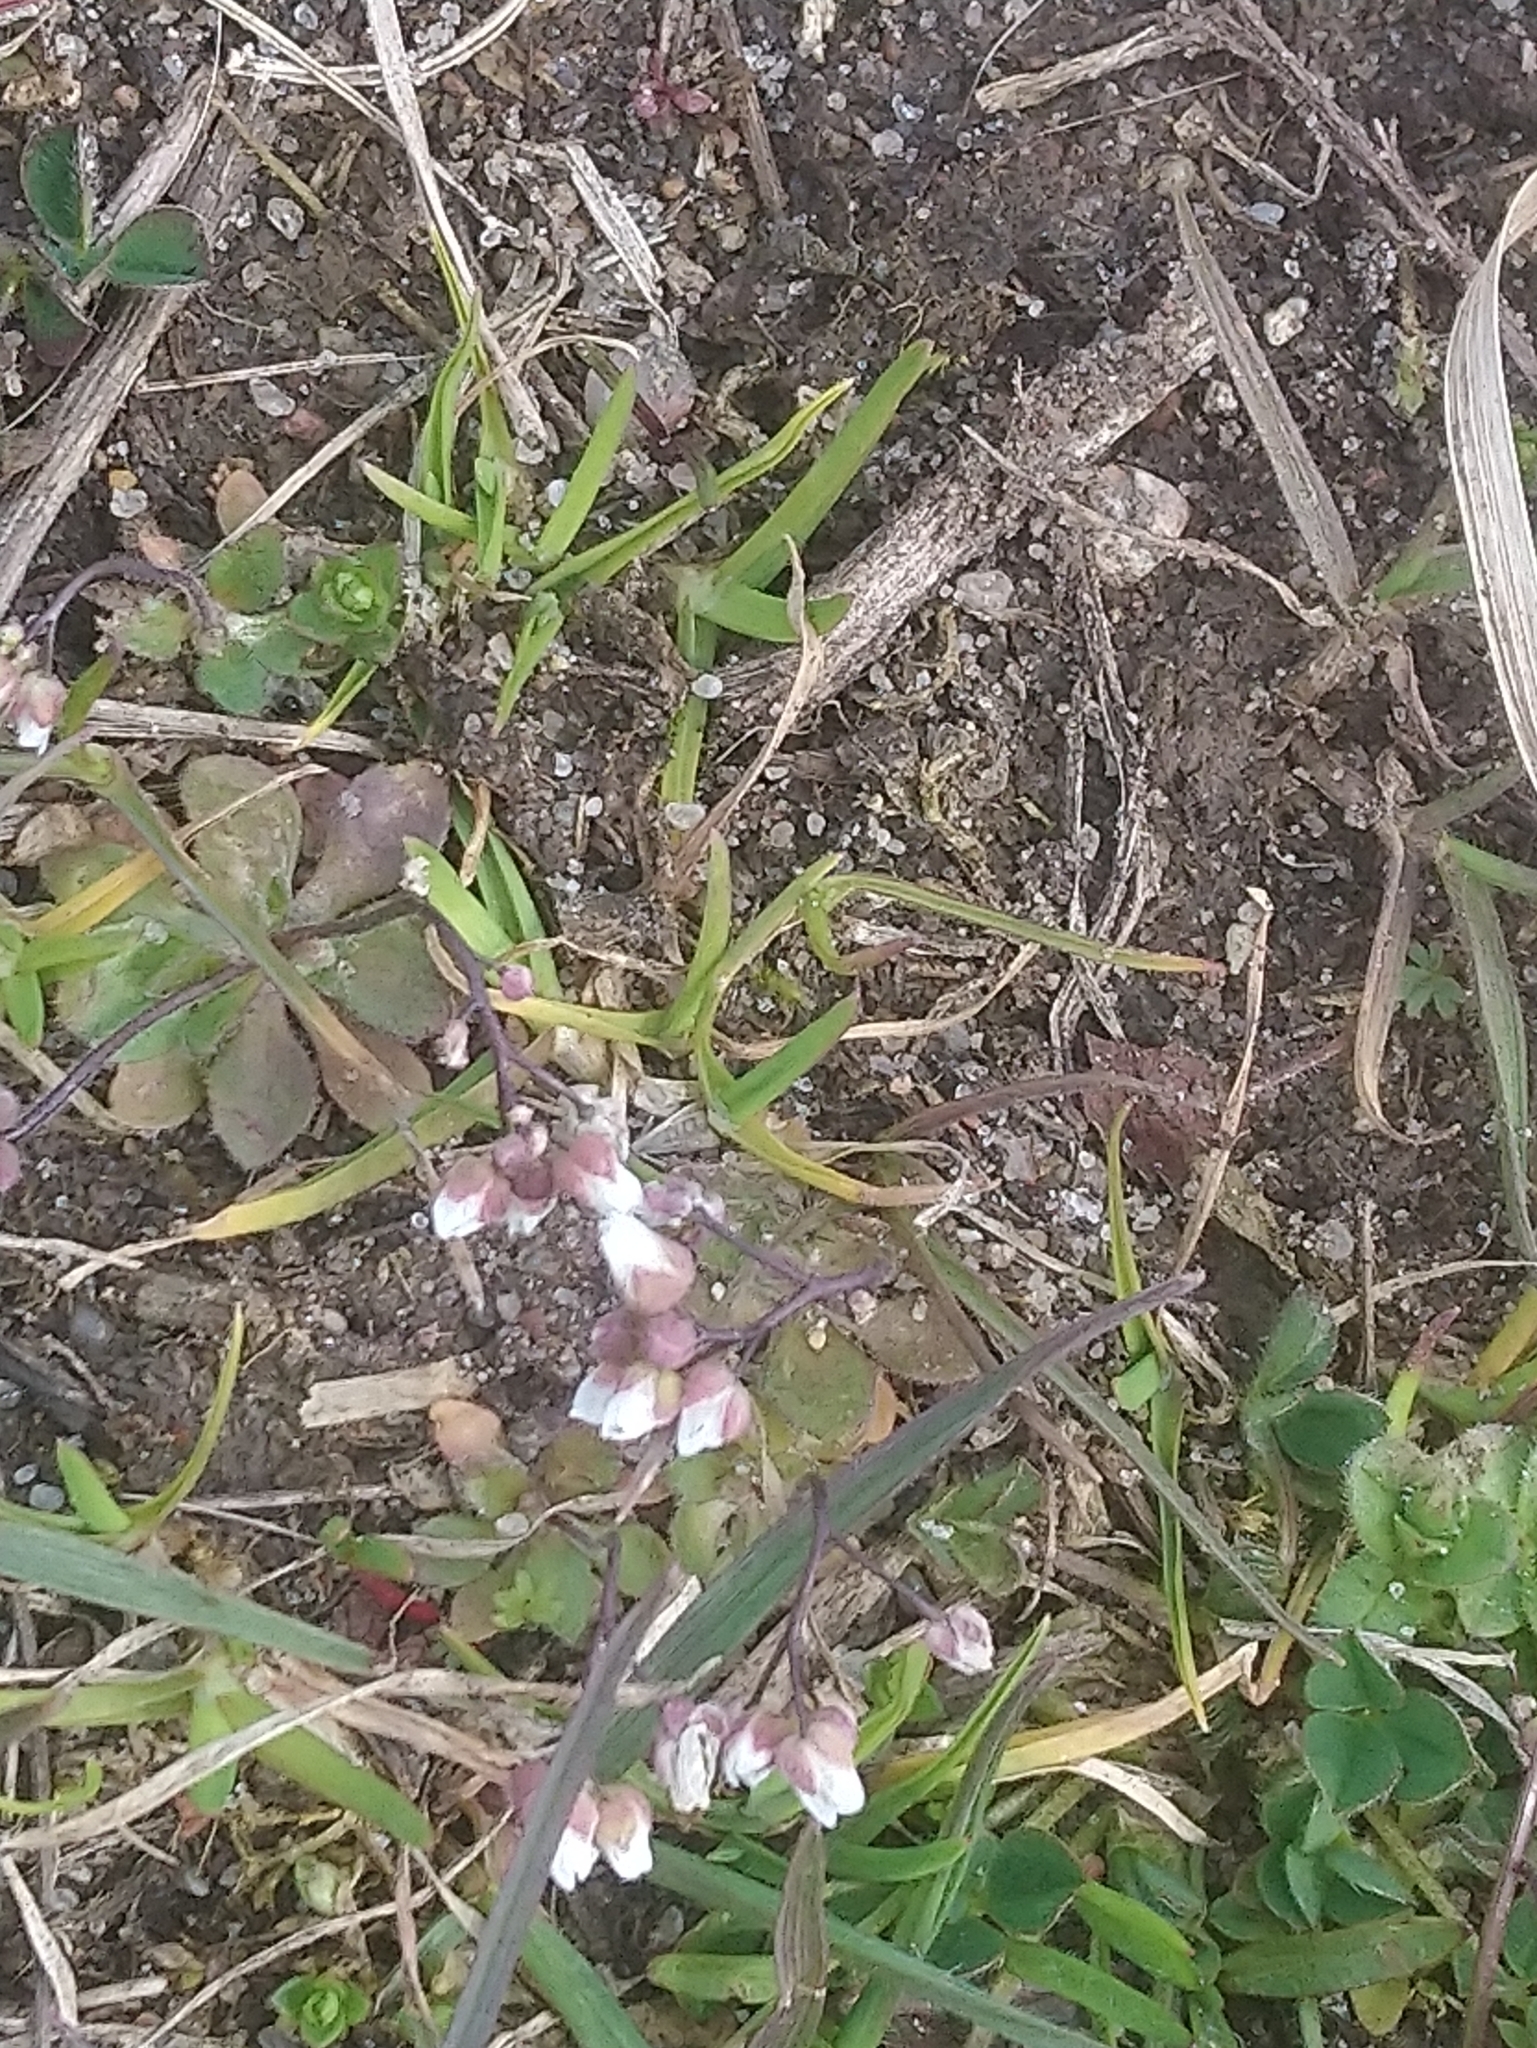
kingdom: Plantae
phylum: Tracheophyta
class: Magnoliopsida
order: Brassicales
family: Brassicaceae
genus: Draba
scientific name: Draba verna
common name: Spring draba
